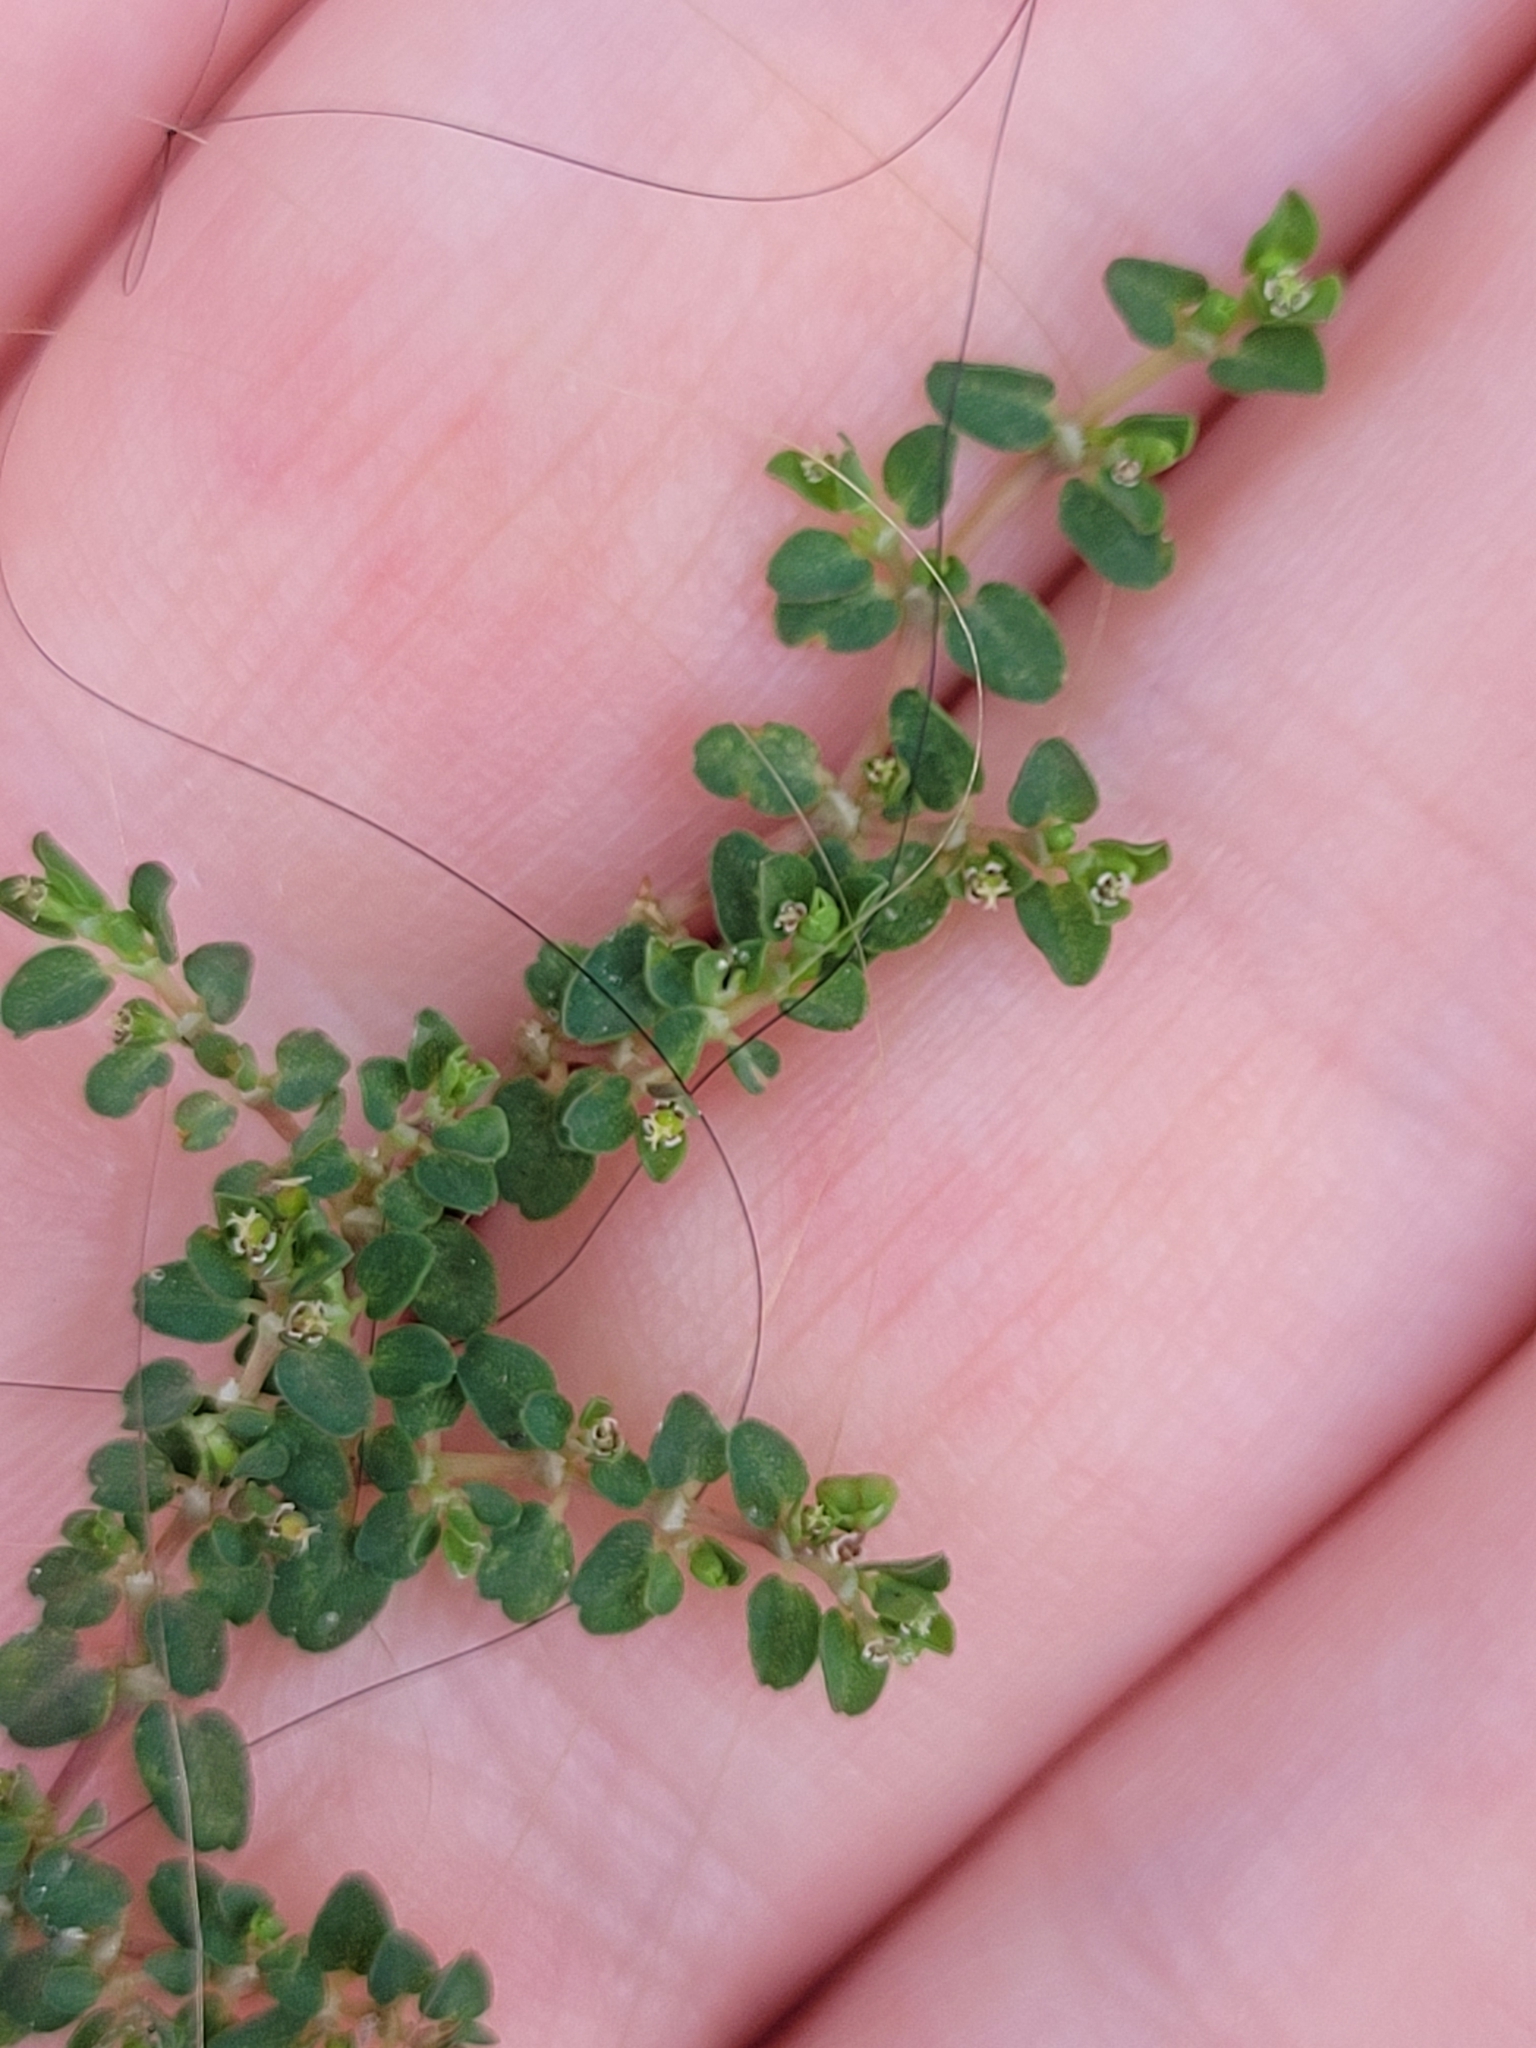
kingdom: Plantae
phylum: Tracheophyta
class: Magnoliopsida
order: Malpighiales
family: Euphorbiaceae
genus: Euphorbia
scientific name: Euphorbia serpens
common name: Matted sandmat
